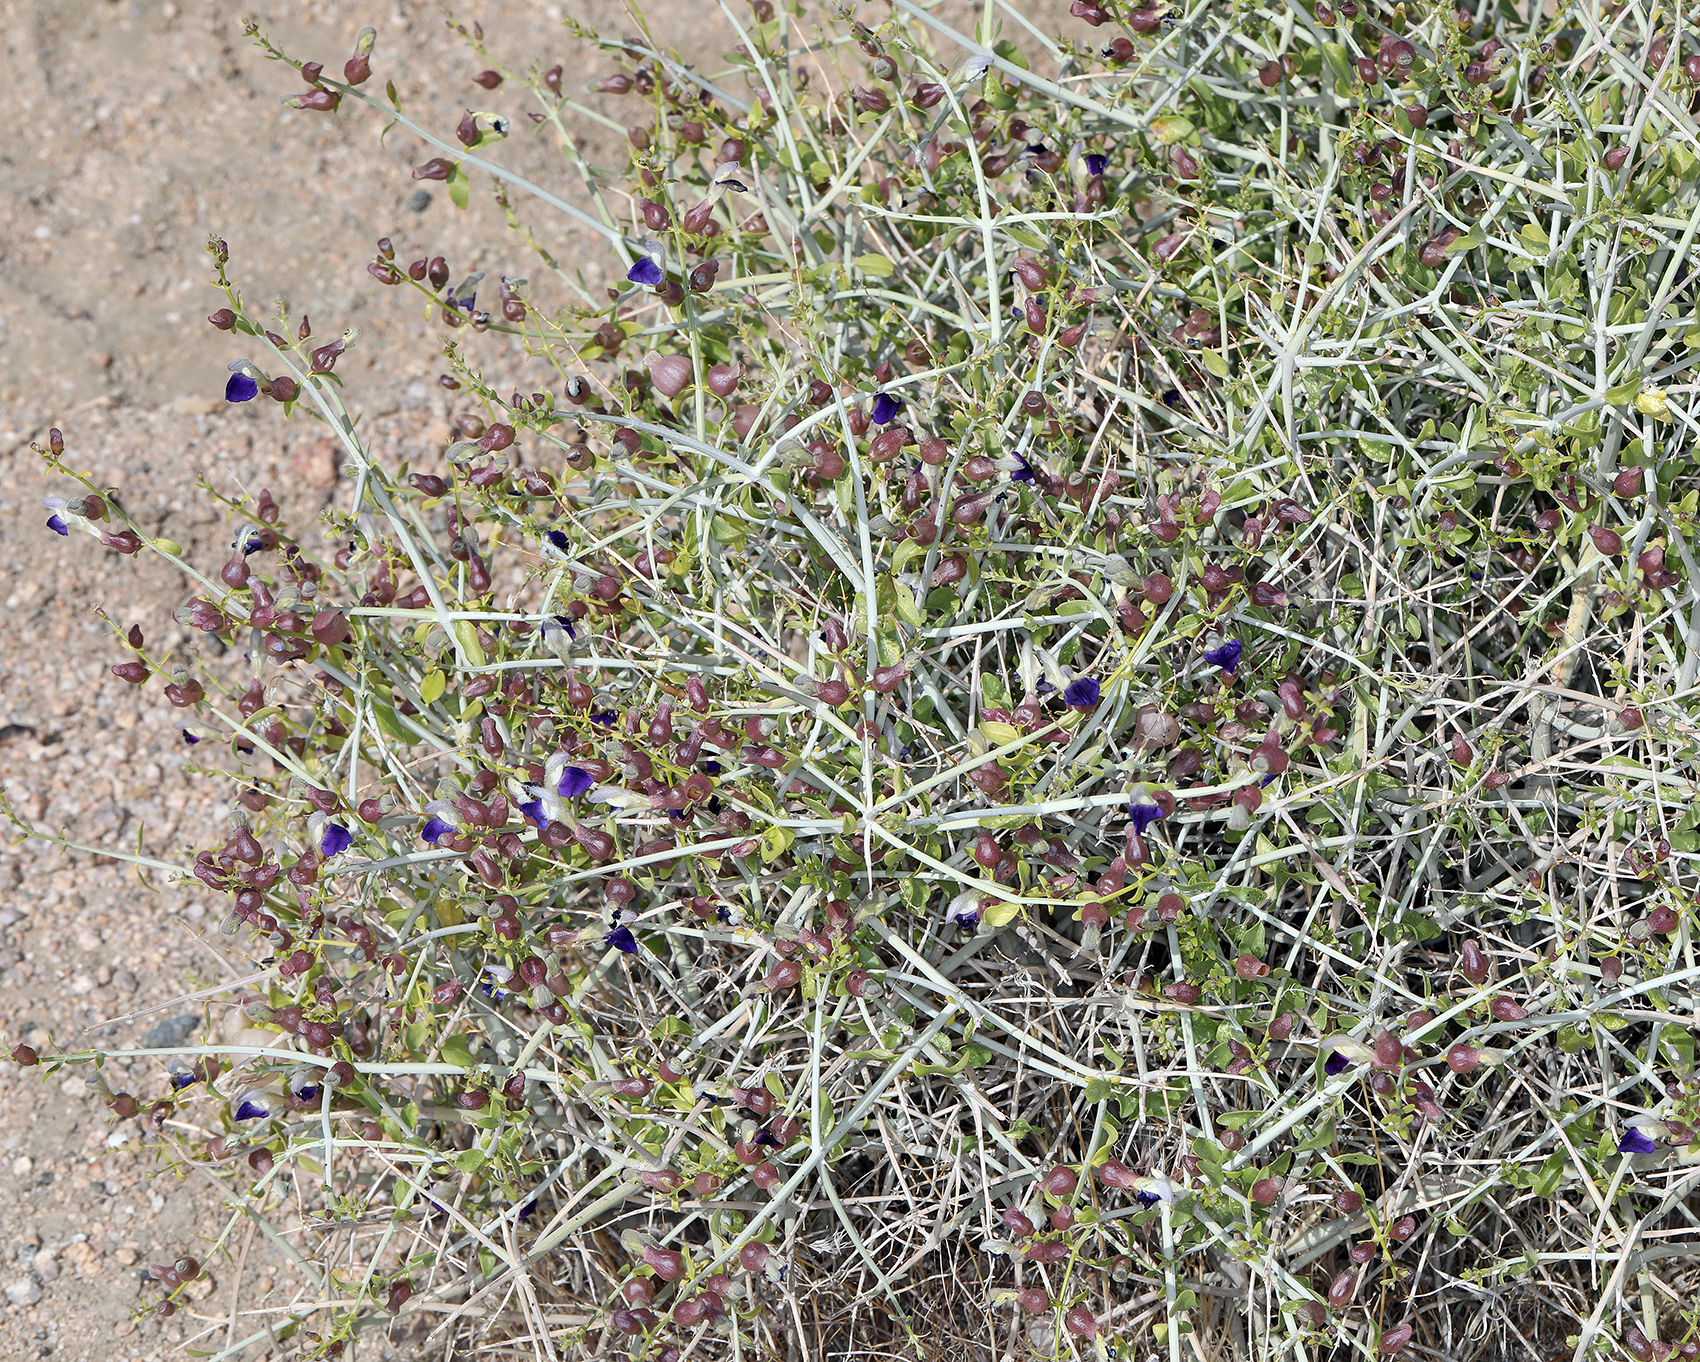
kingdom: Plantae
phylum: Tracheophyta
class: Magnoliopsida
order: Lamiales
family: Lamiaceae
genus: Scutellaria
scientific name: Scutellaria mexicana
